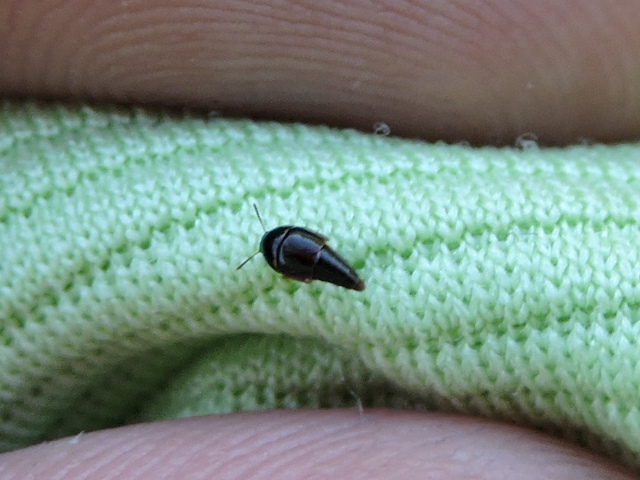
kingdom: Animalia
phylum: Arthropoda
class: Insecta
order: Coleoptera
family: Staphylinidae
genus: Coproporus
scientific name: Coproporus
